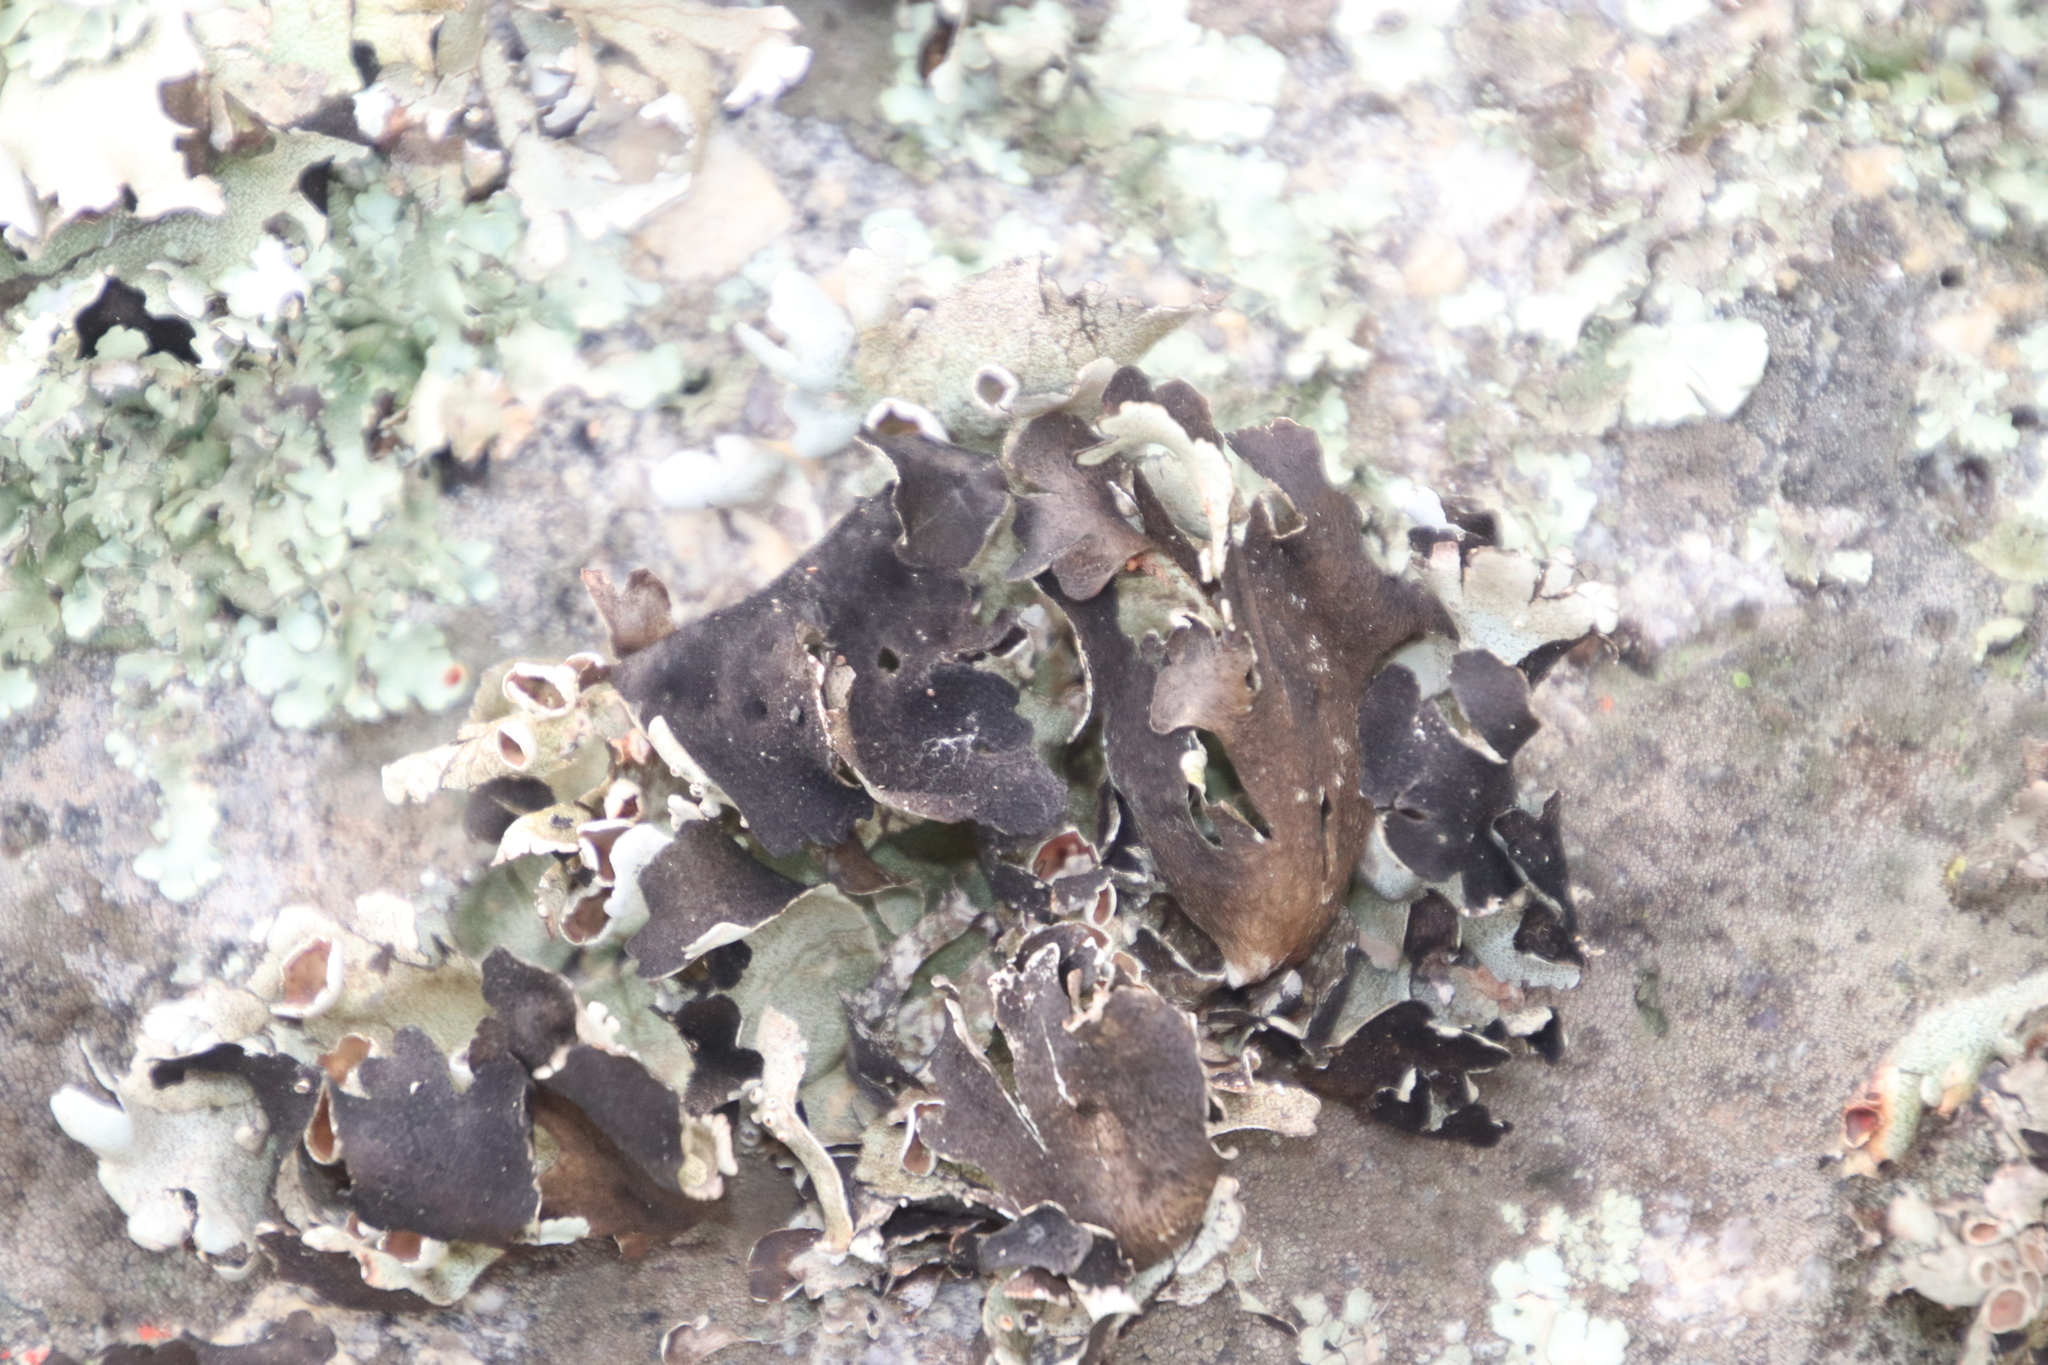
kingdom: Fungi
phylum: Ascomycota
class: Lecanoromycetes
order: Lecanorales
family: Parmeliaceae
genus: Xanthoparmelia
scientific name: Xanthoparmelia hottentotta
